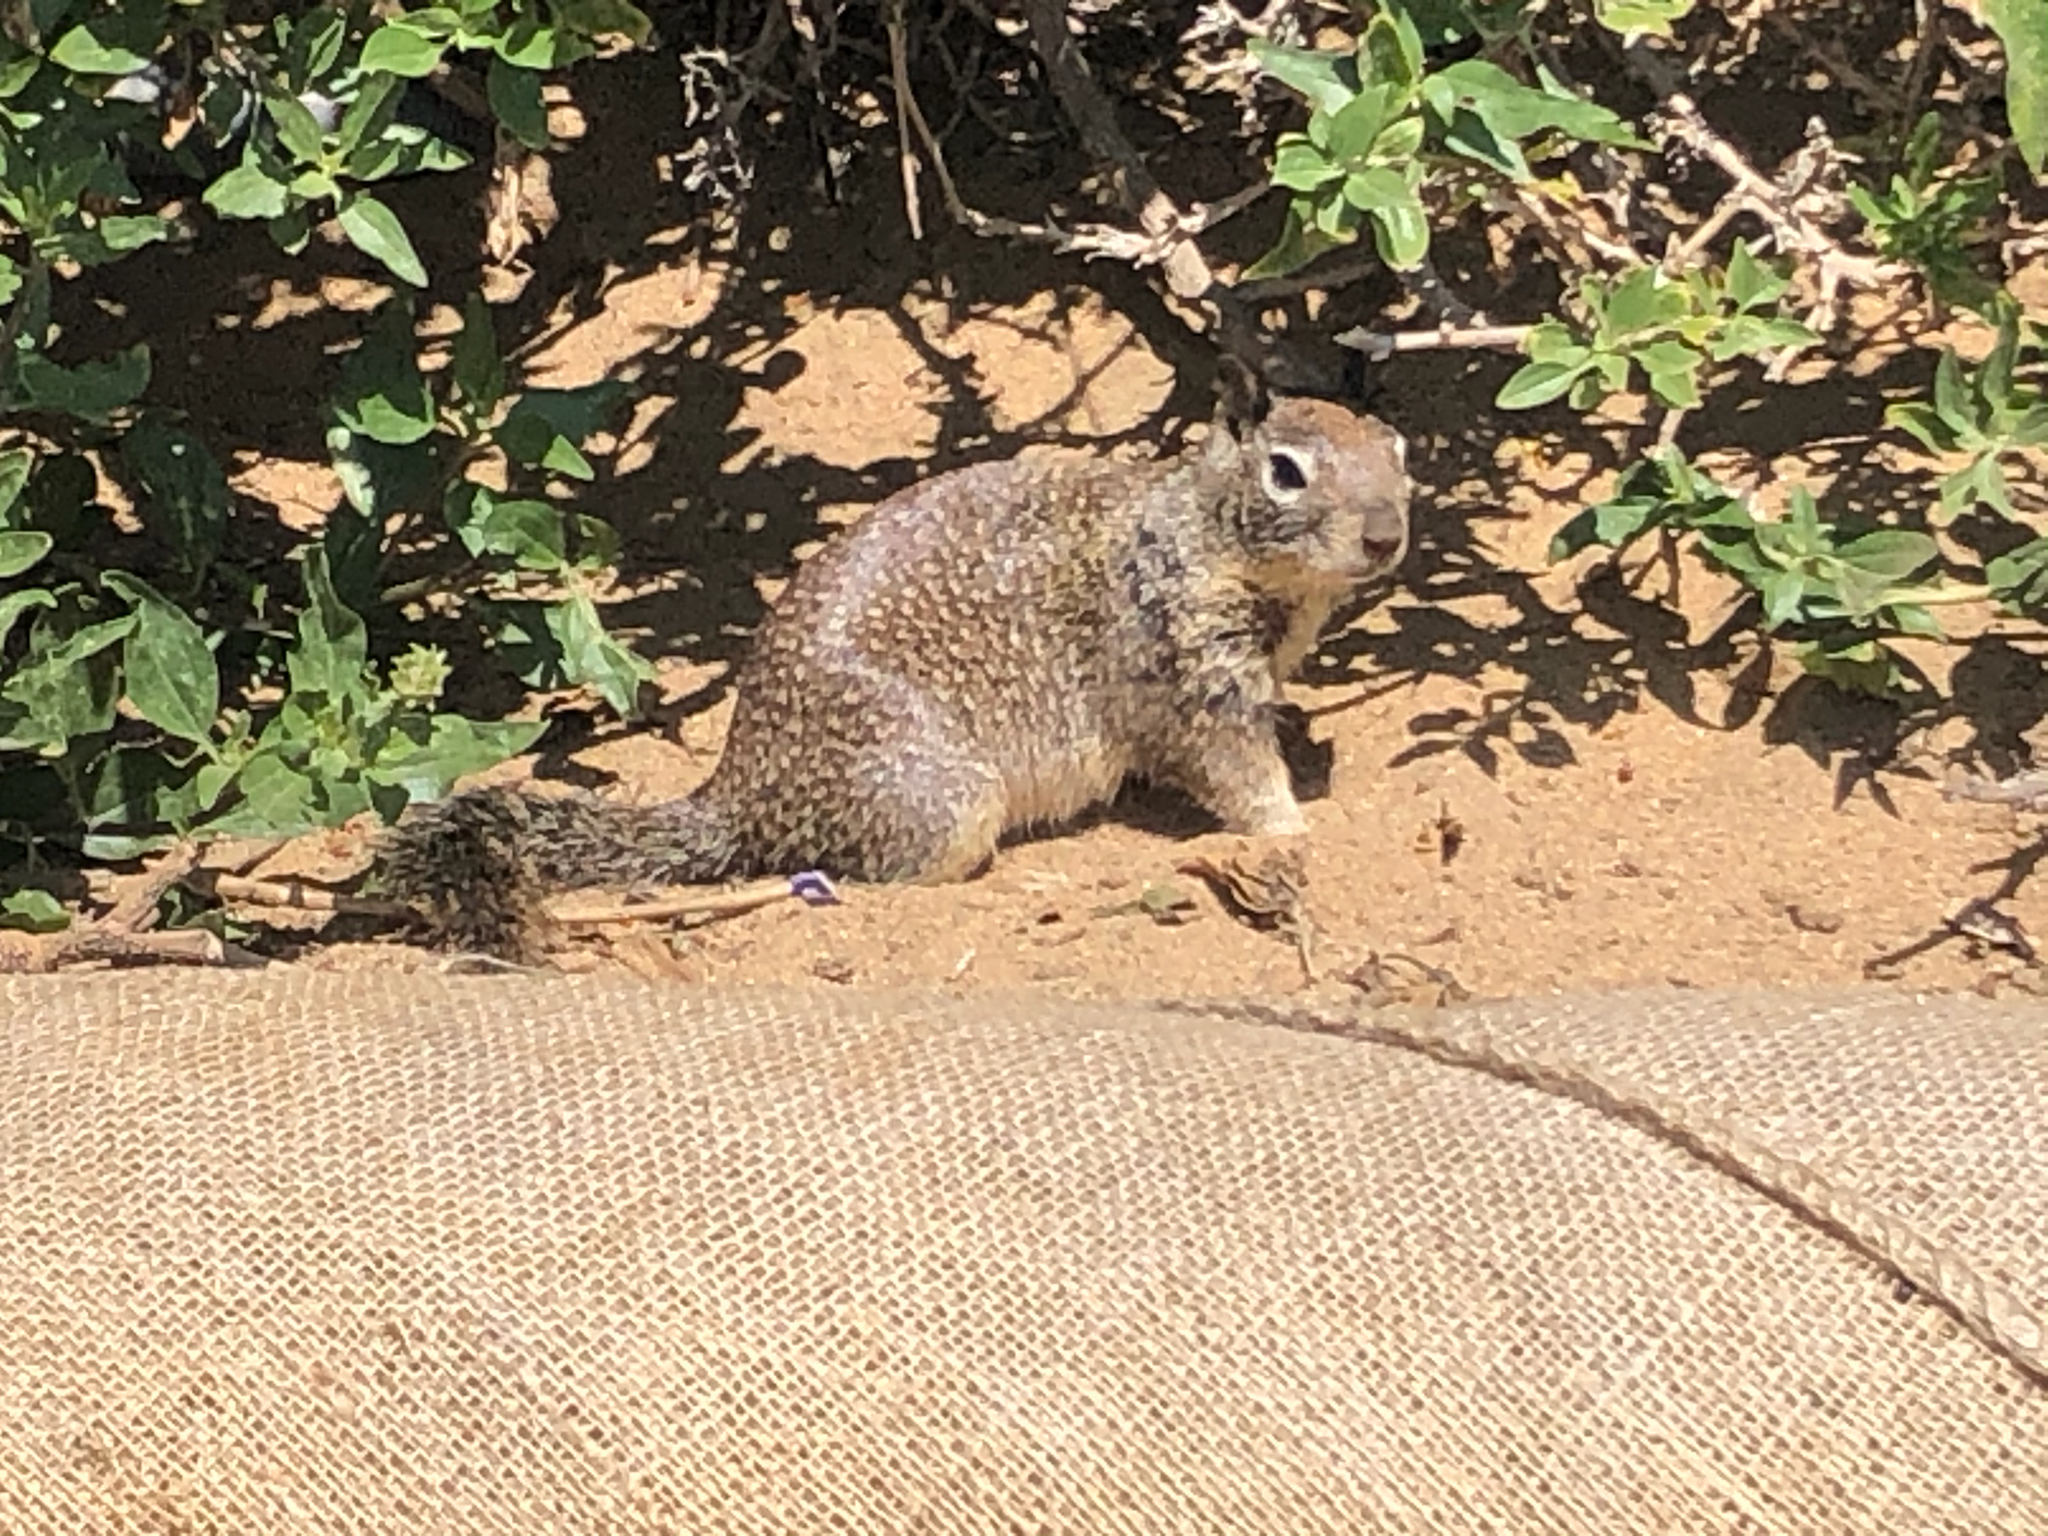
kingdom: Animalia
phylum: Chordata
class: Mammalia
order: Rodentia
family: Sciuridae
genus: Otospermophilus
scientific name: Otospermophilus beecheyi
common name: California ground squirrel
